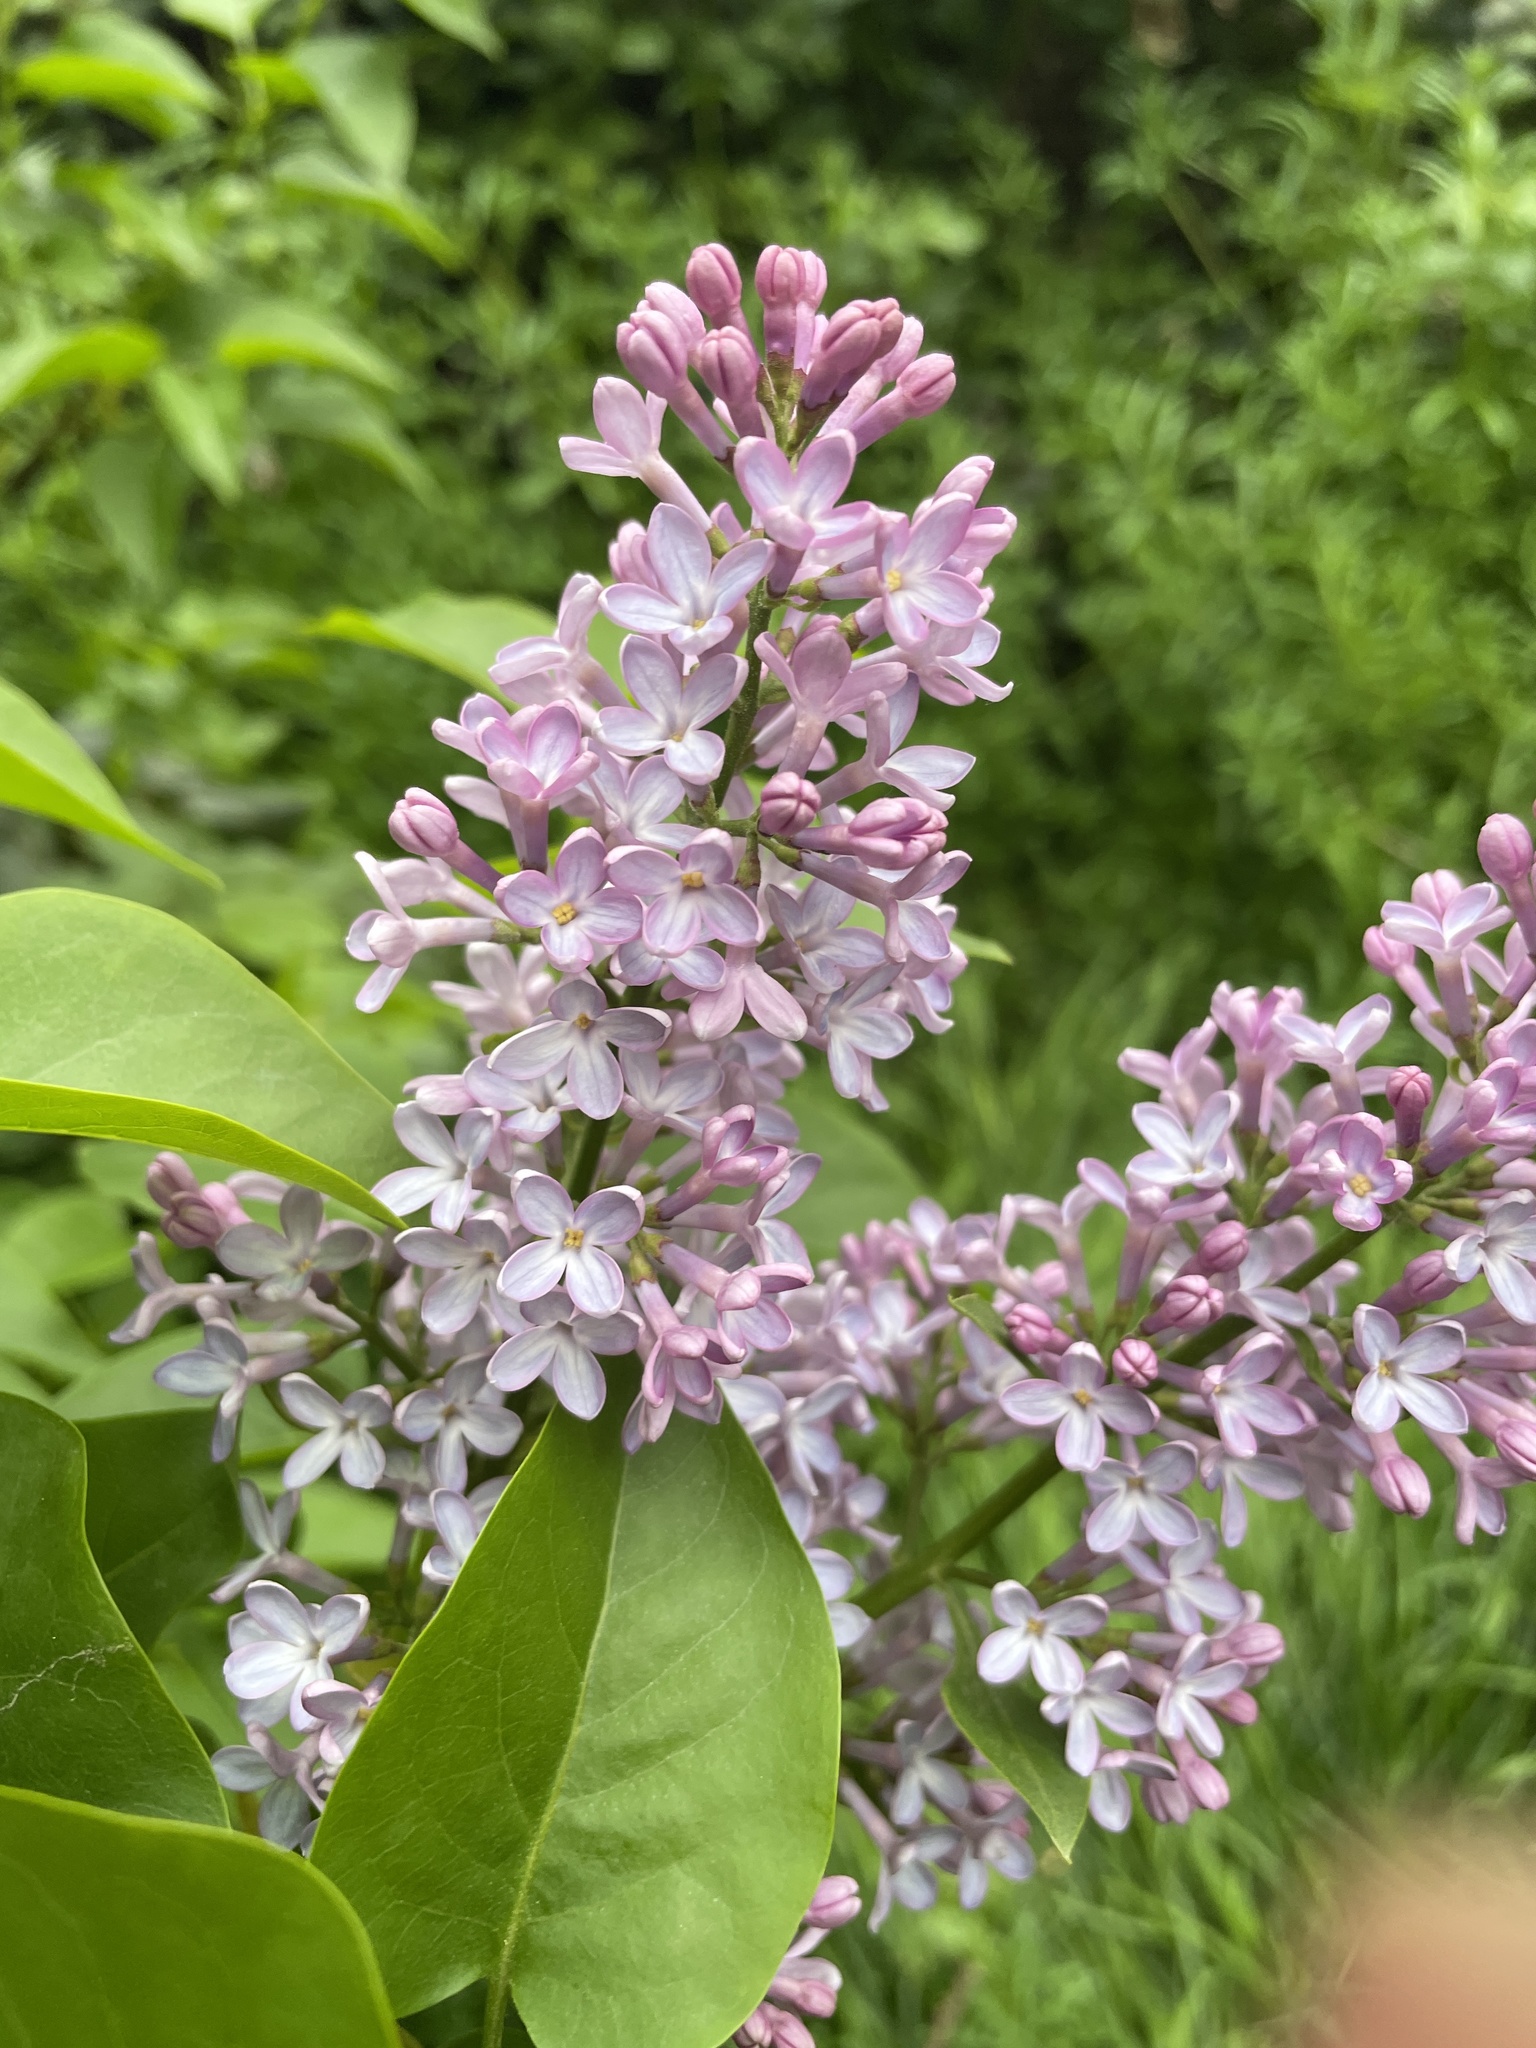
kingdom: Plantae
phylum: Tracheophyta
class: Magnoliopsida
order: Lamiales
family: Oleaceae
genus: Syringa
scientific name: Syringa vulgaris
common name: Common lilac
